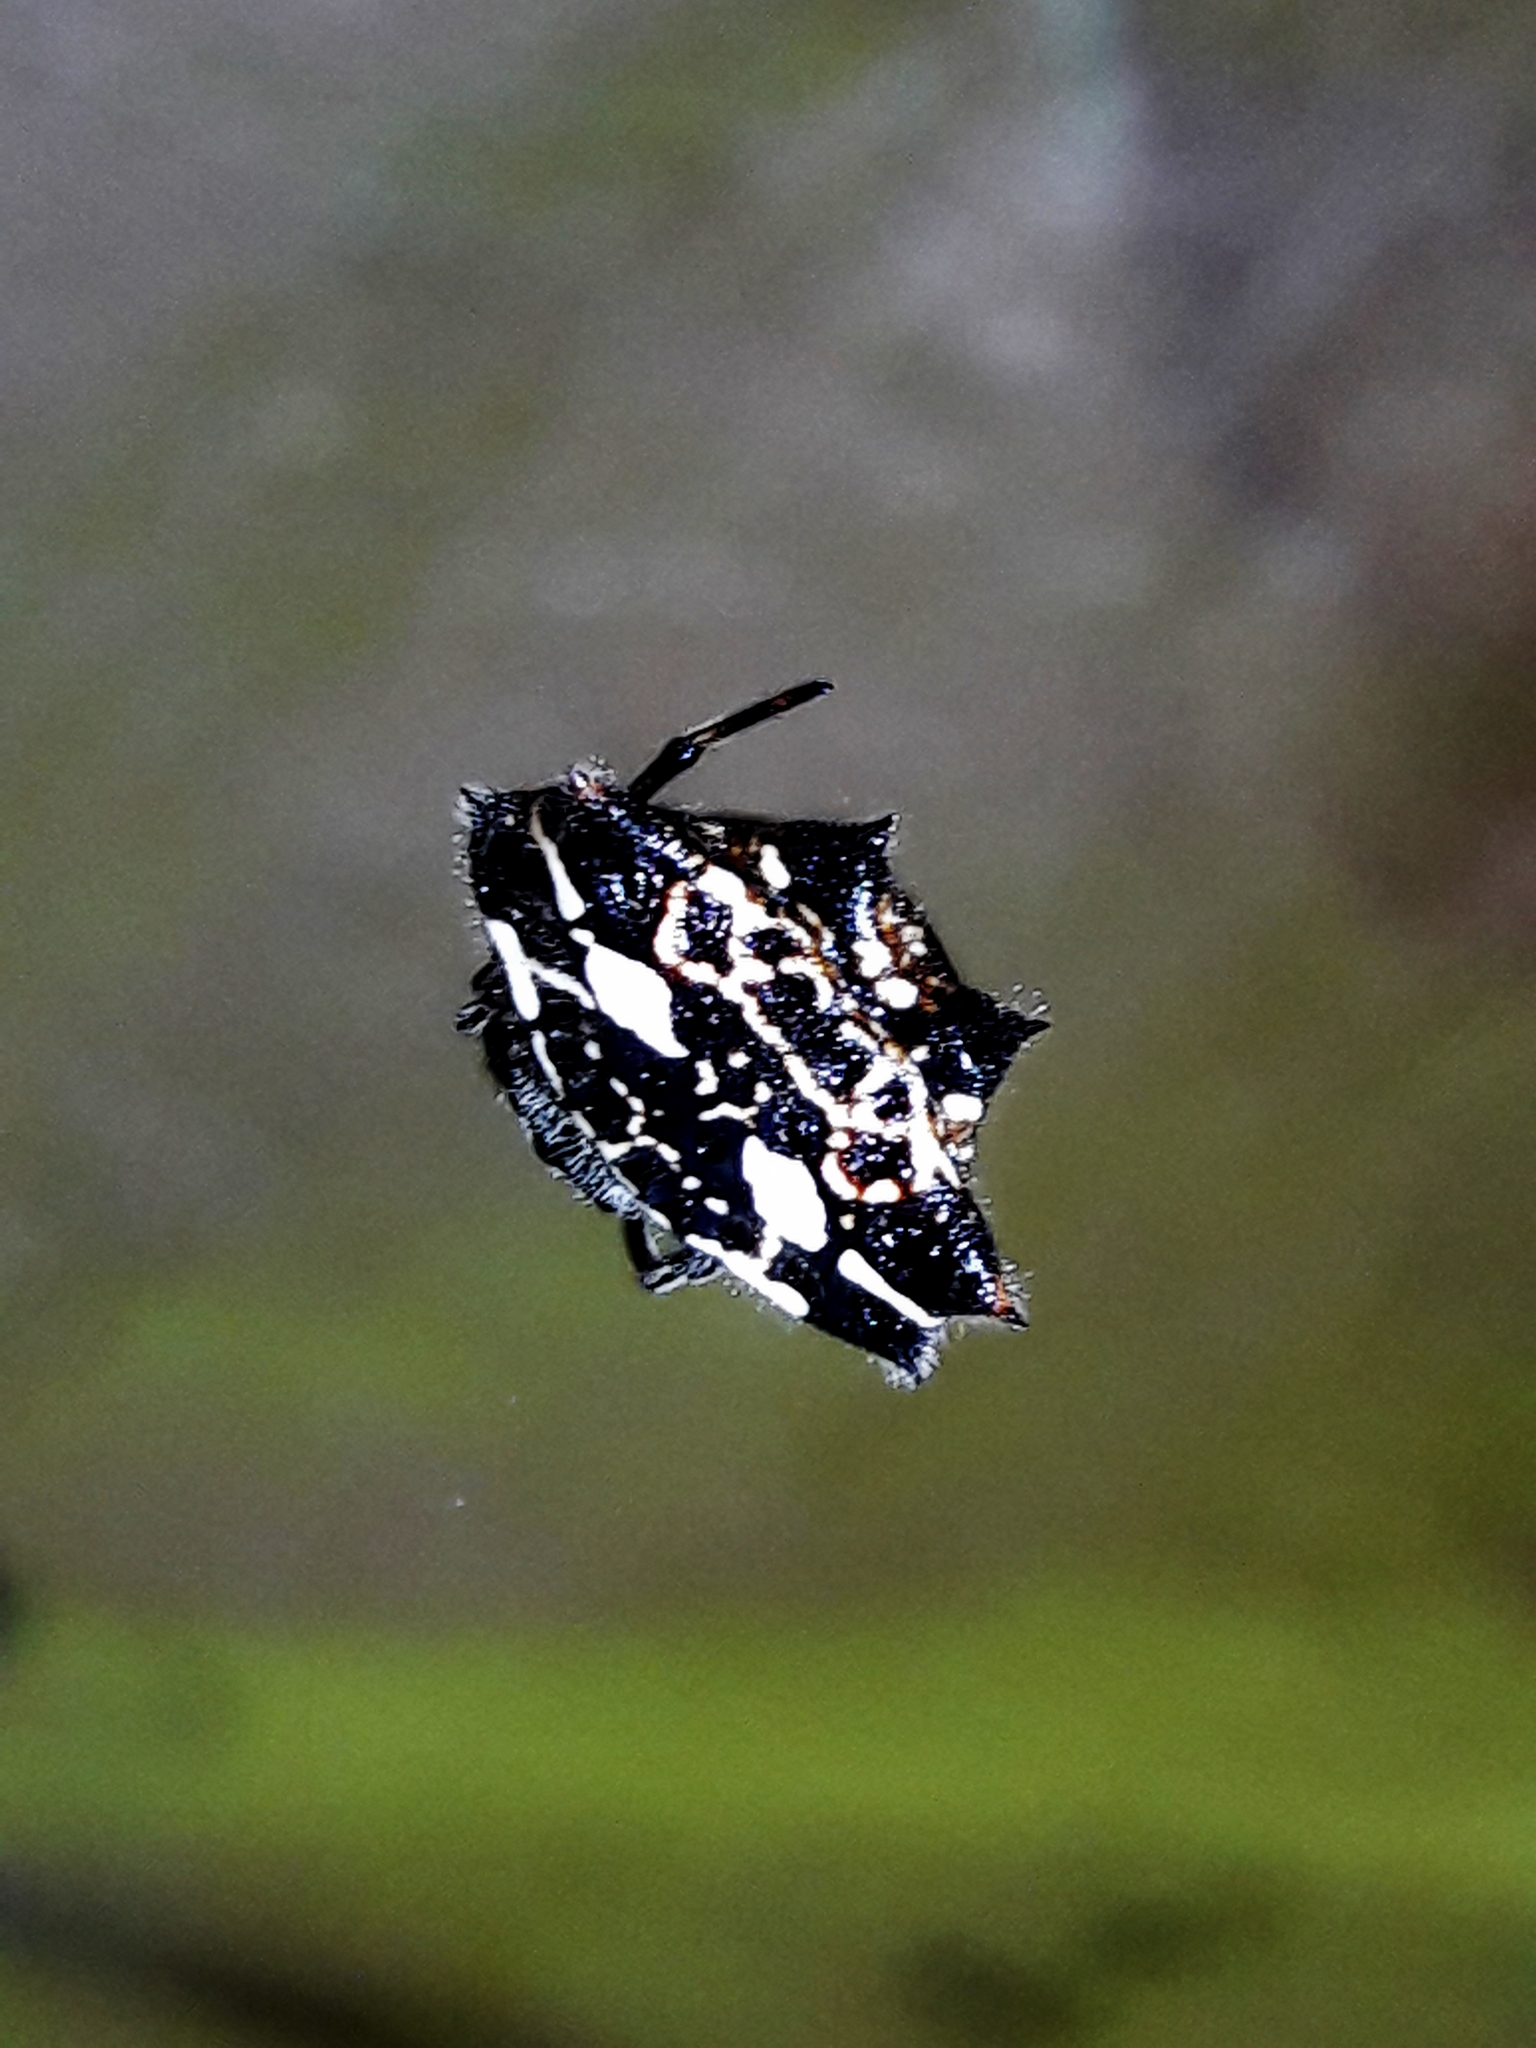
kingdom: Animalia
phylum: Arthropoda
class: Arachnida
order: Araneae
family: Araneidae
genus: Gasteracantha
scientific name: Gasteracantha cancriformis
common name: Orb weavers
